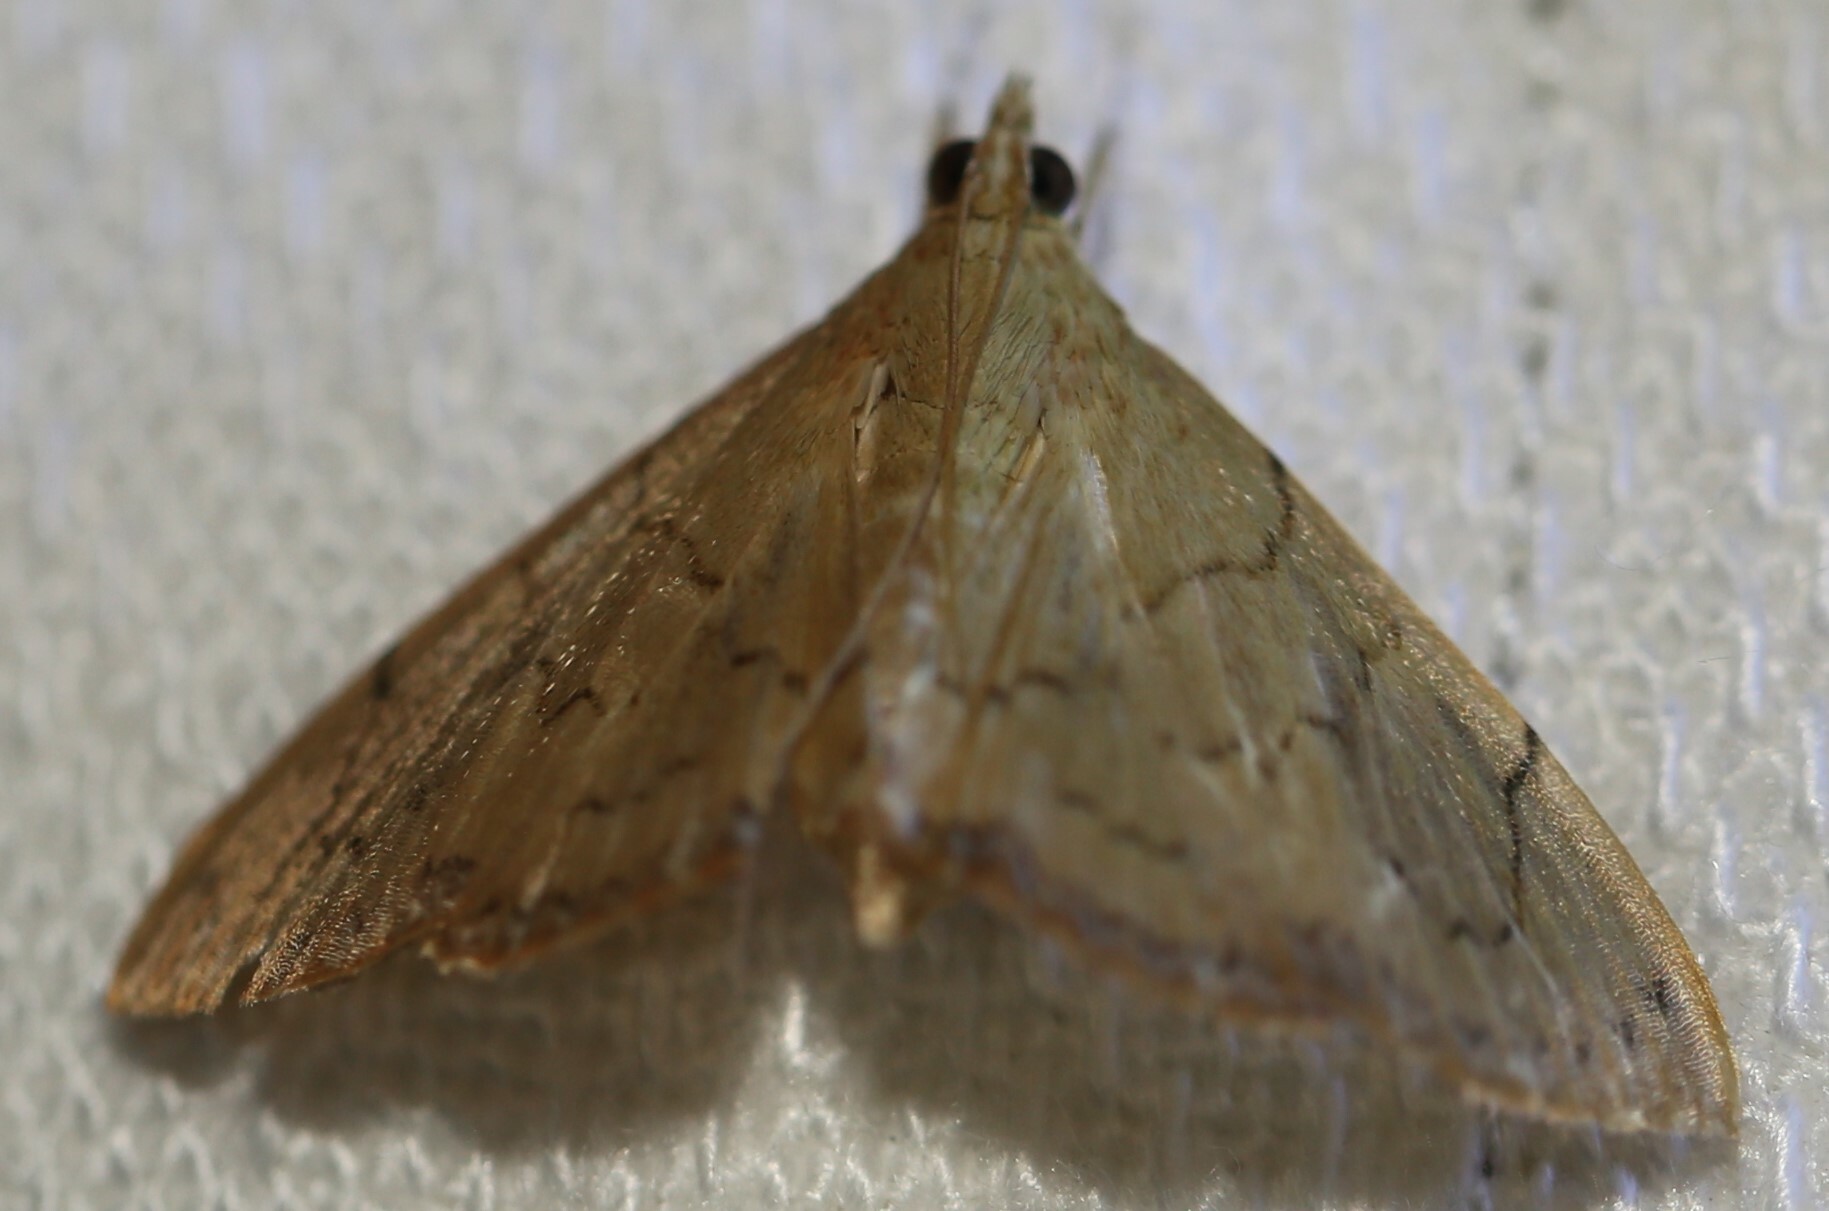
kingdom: Animalia
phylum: Arthropoda
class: Insecta
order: Lepidoptera
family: Crambidae
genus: Hyalobathra
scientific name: Hyalobathra crenulata
